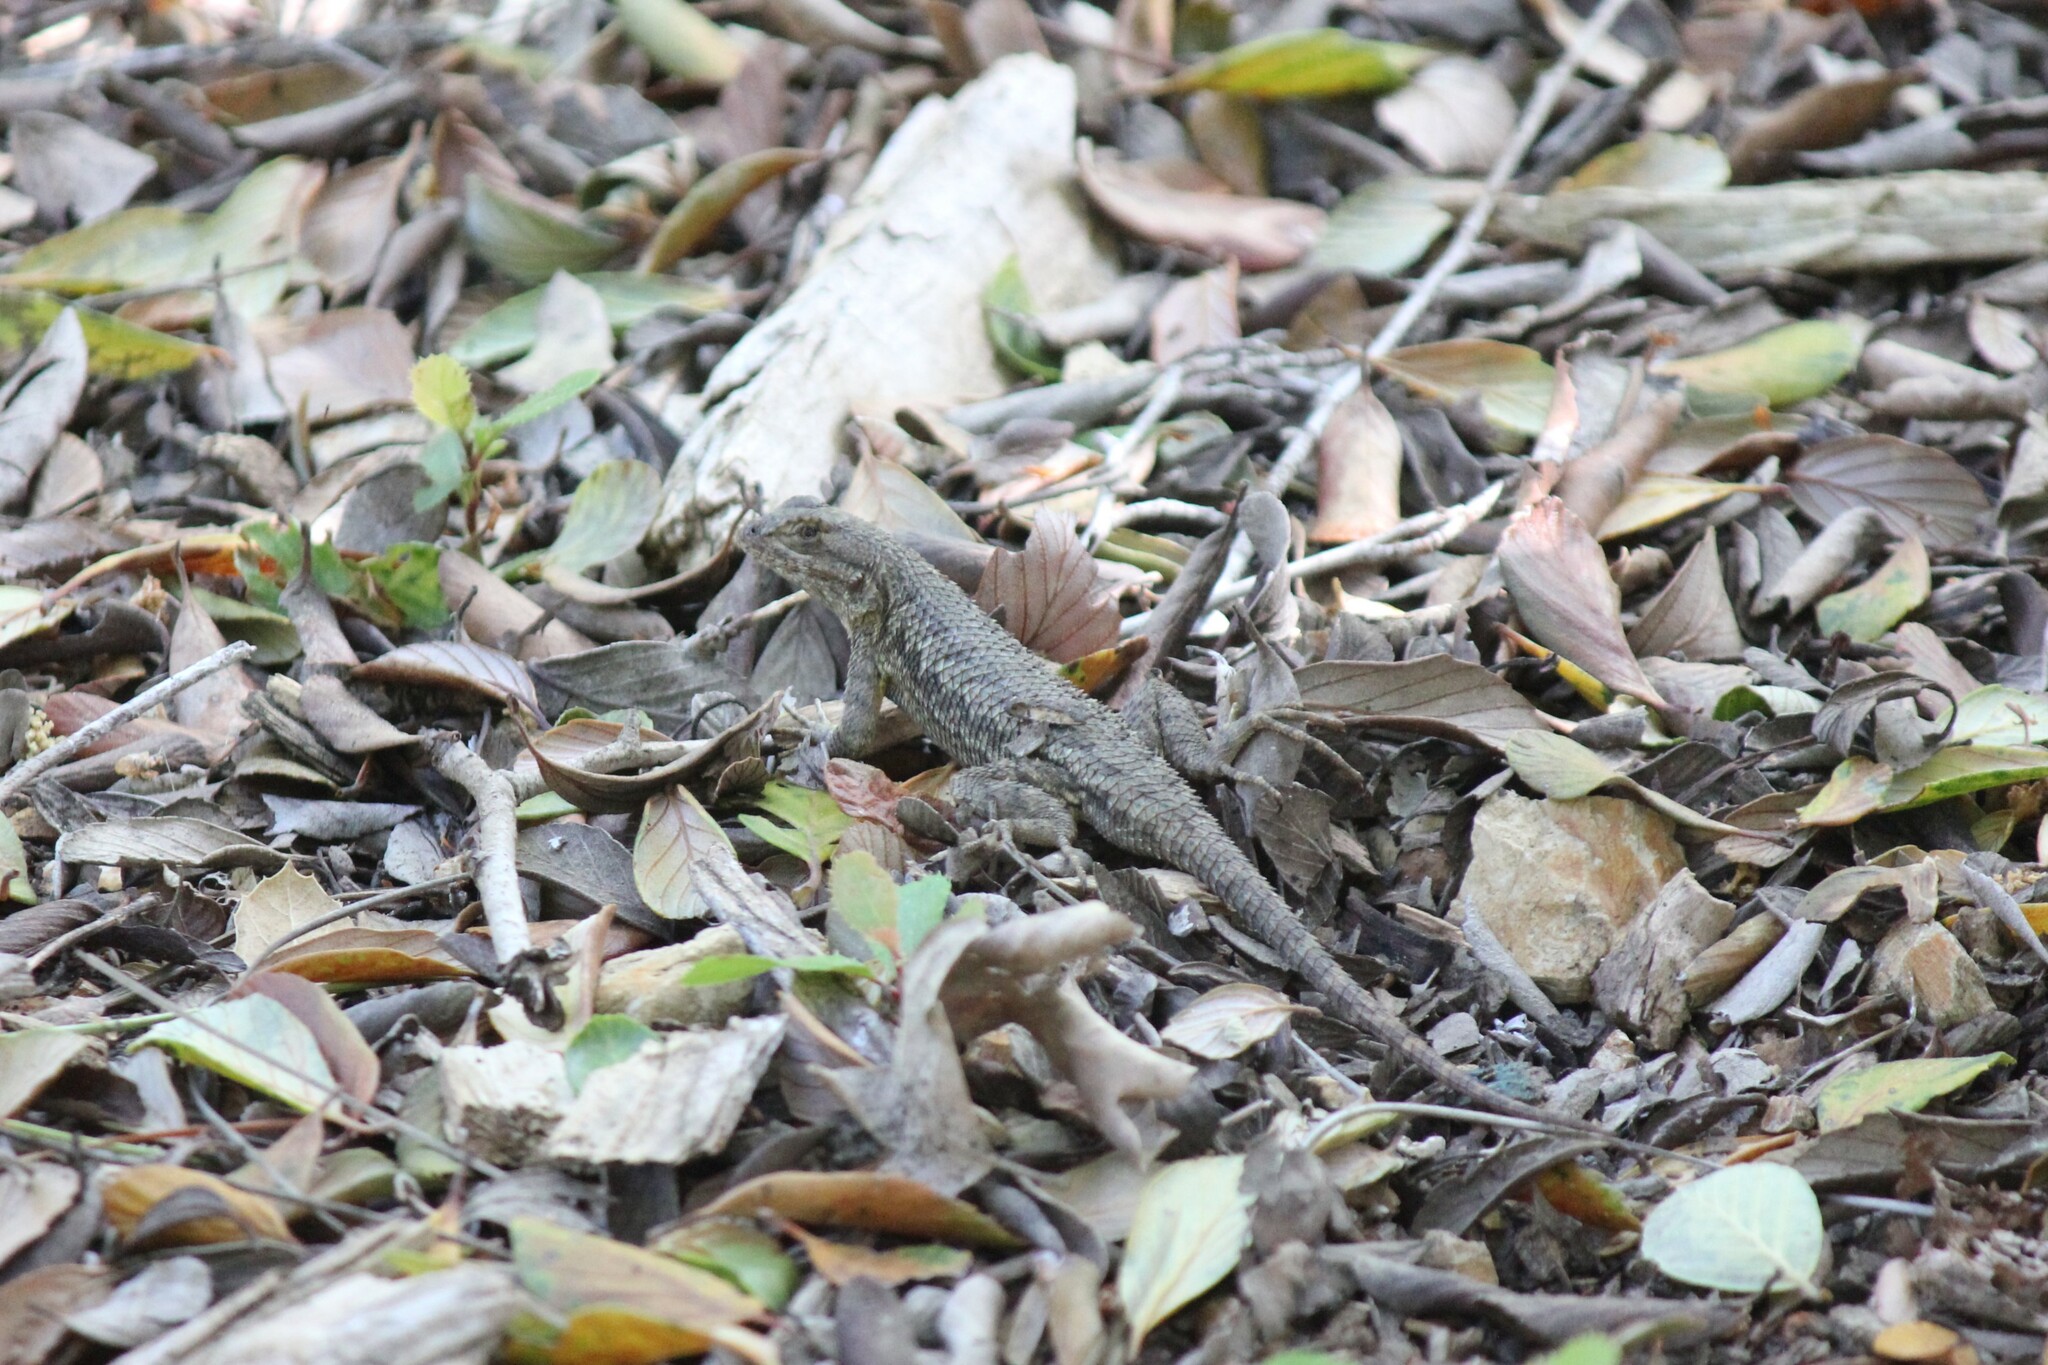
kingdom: Animalia
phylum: Chordata
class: Squamata
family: Phrynosomatidae
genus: Sceloporus
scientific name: Sceloporus occidentalis
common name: Western fence lizard
